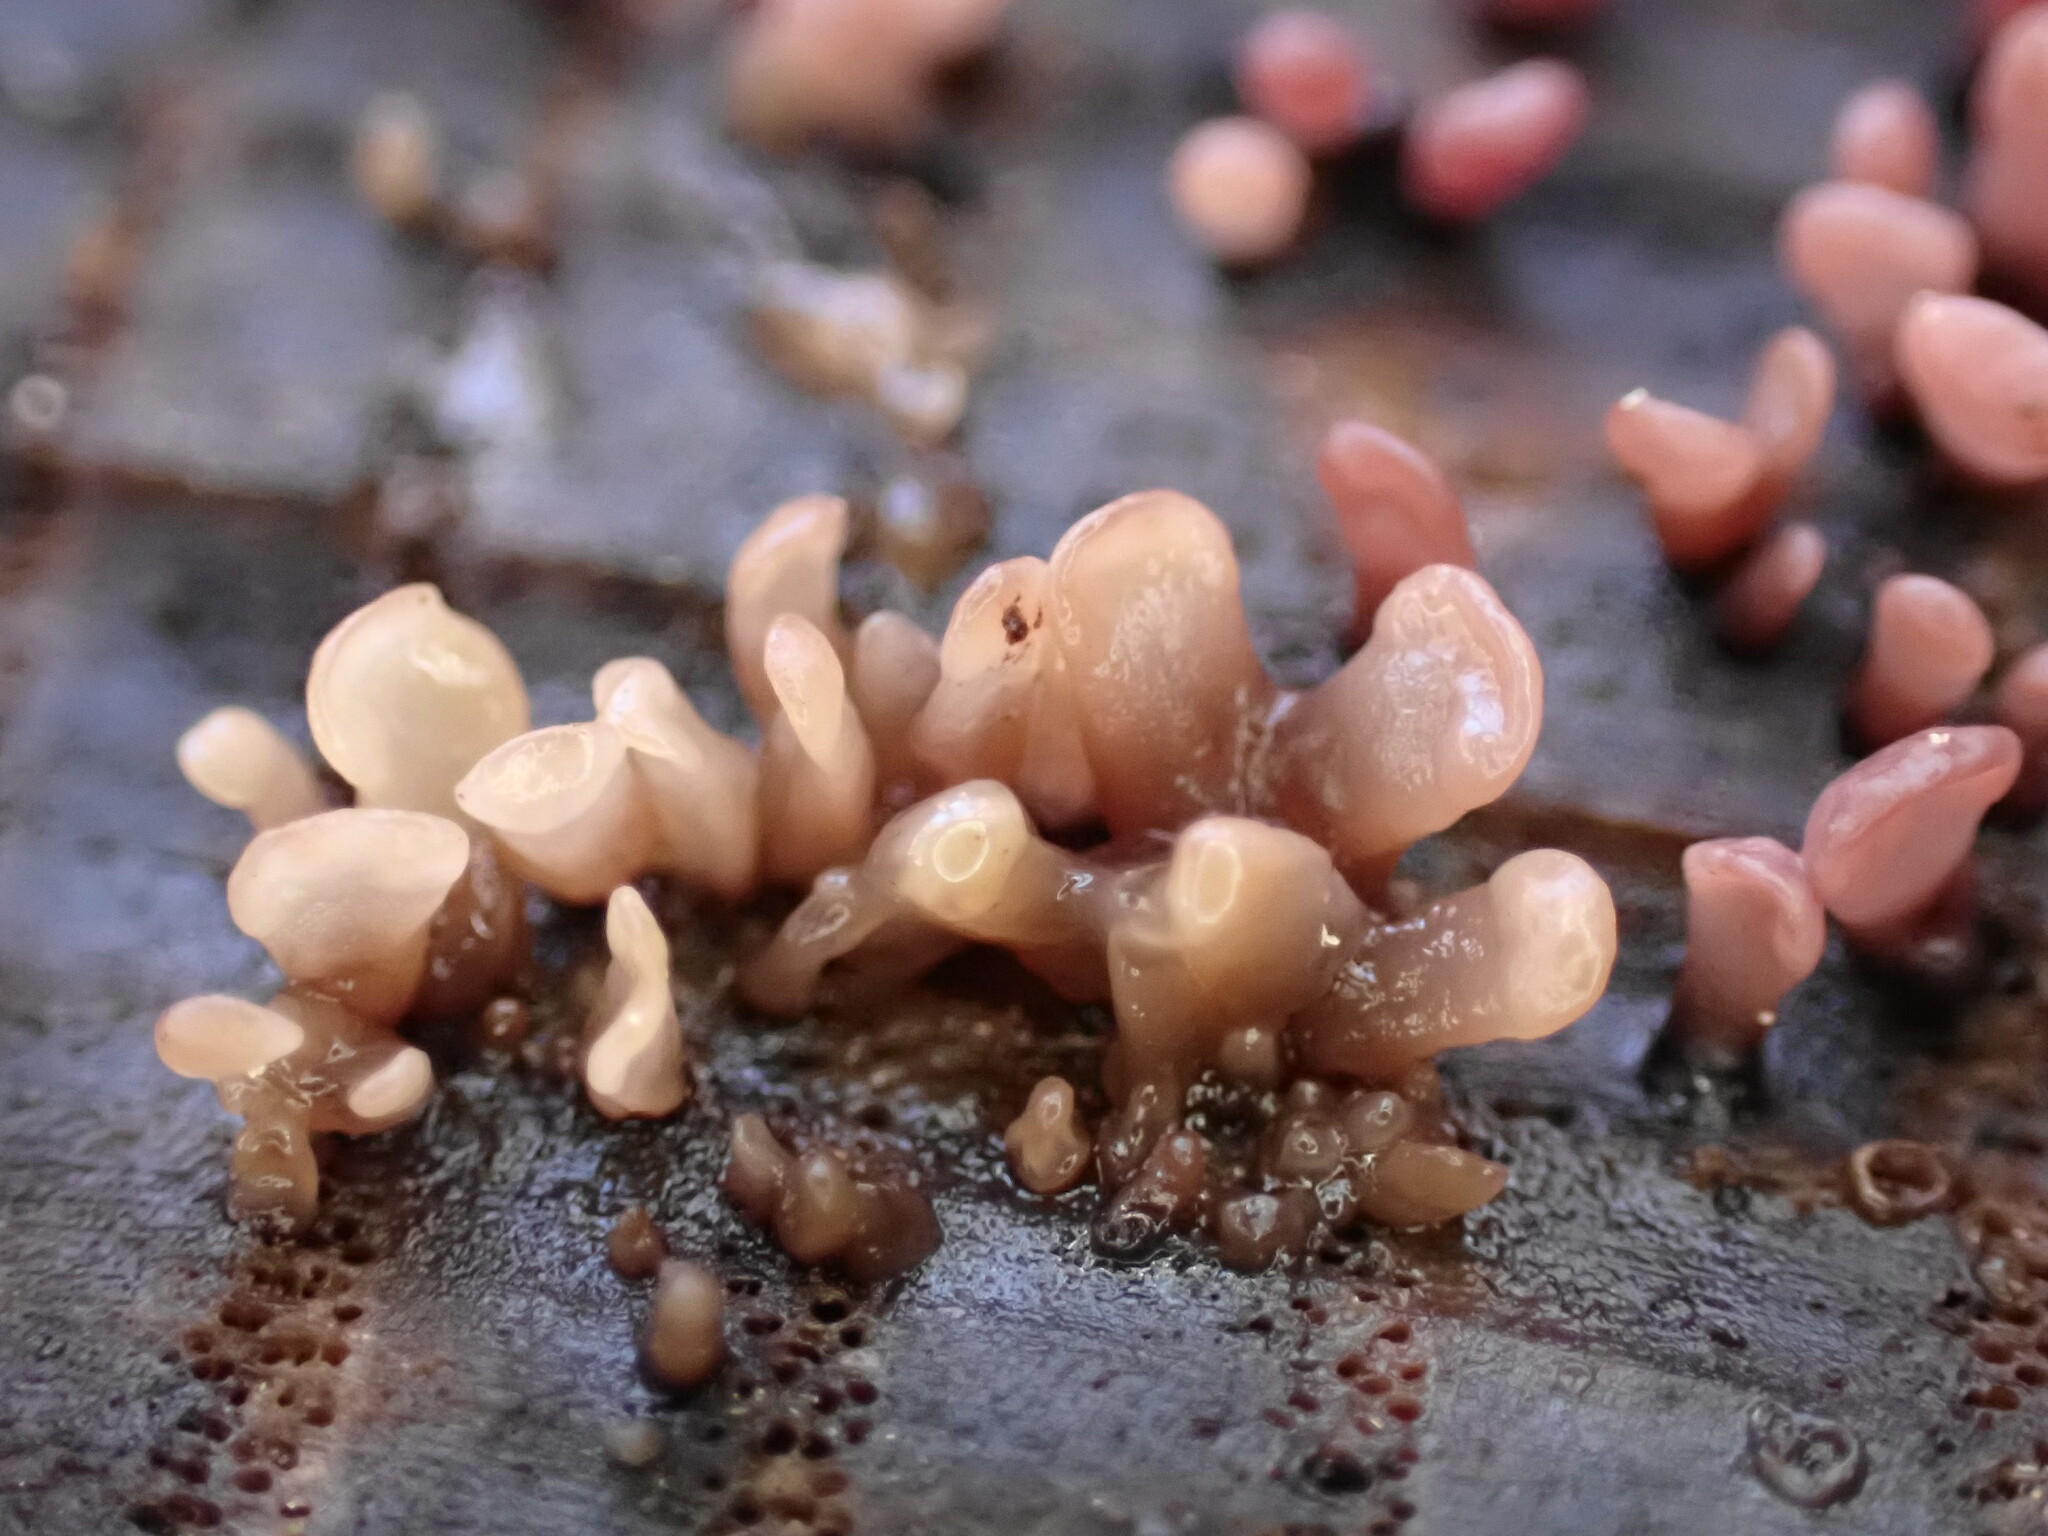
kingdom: Fungi
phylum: Ascomycota
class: Leotiomycetes
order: Helotiales
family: Gelatinodiscaceae
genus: Ascocoryne
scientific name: Ascocoryne sarcoides
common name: Purple jellydisc
